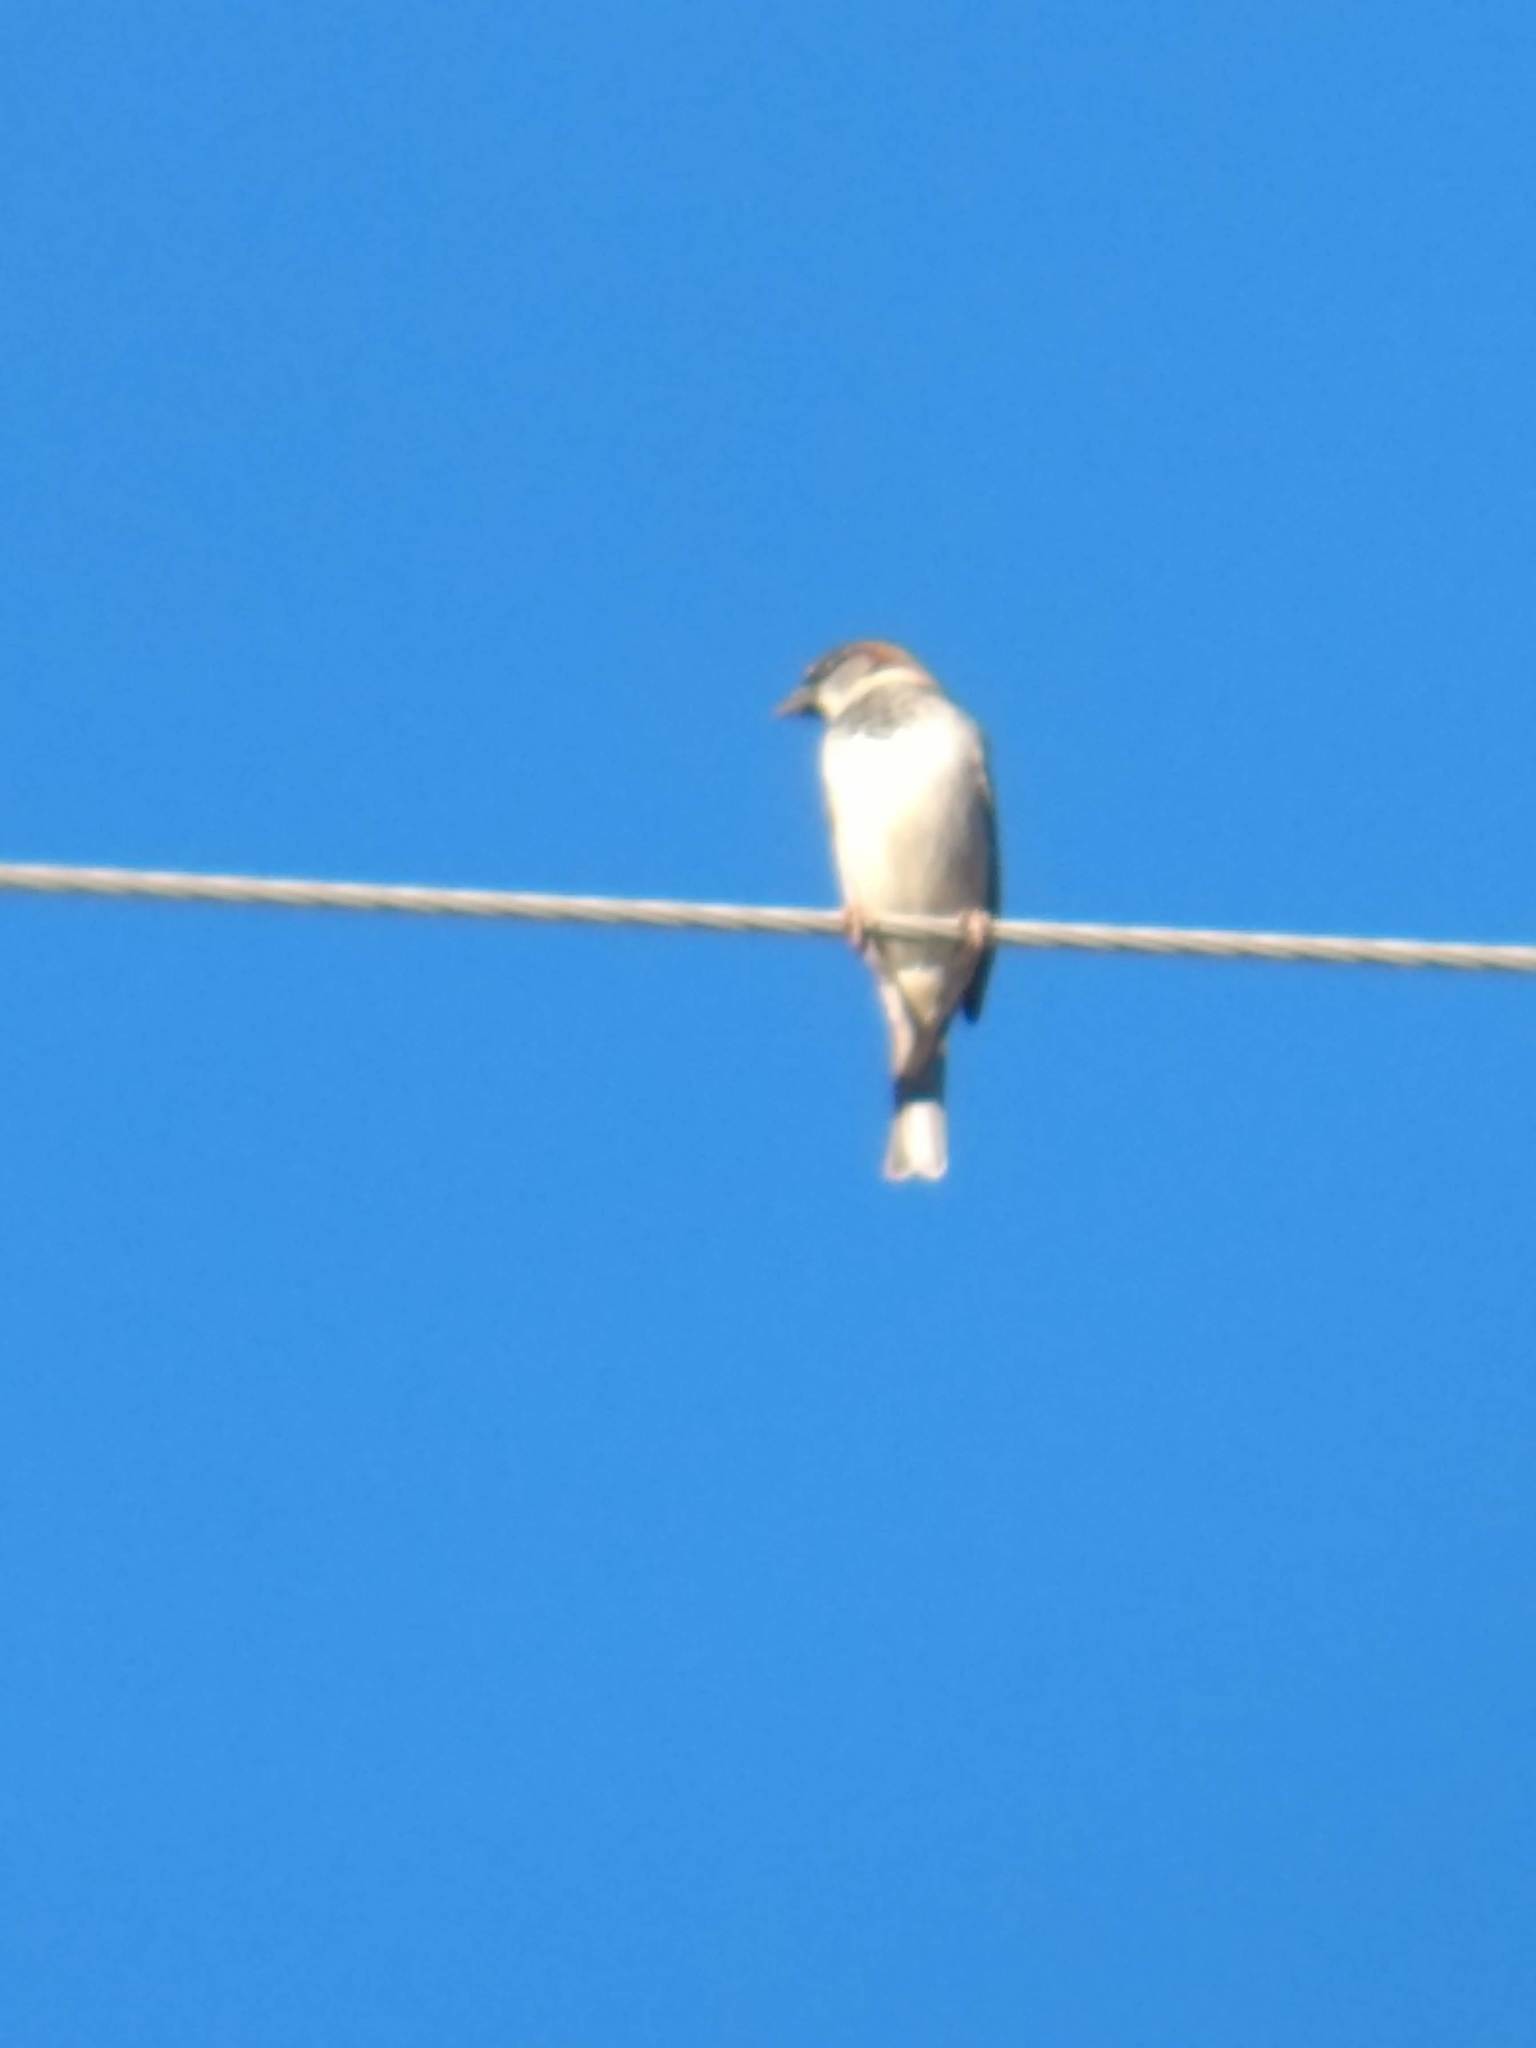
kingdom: Animalia
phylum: Chordata
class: Aves
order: Passeriformes
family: Passeridae
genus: Passer
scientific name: Passer domesticus
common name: House sparrow
